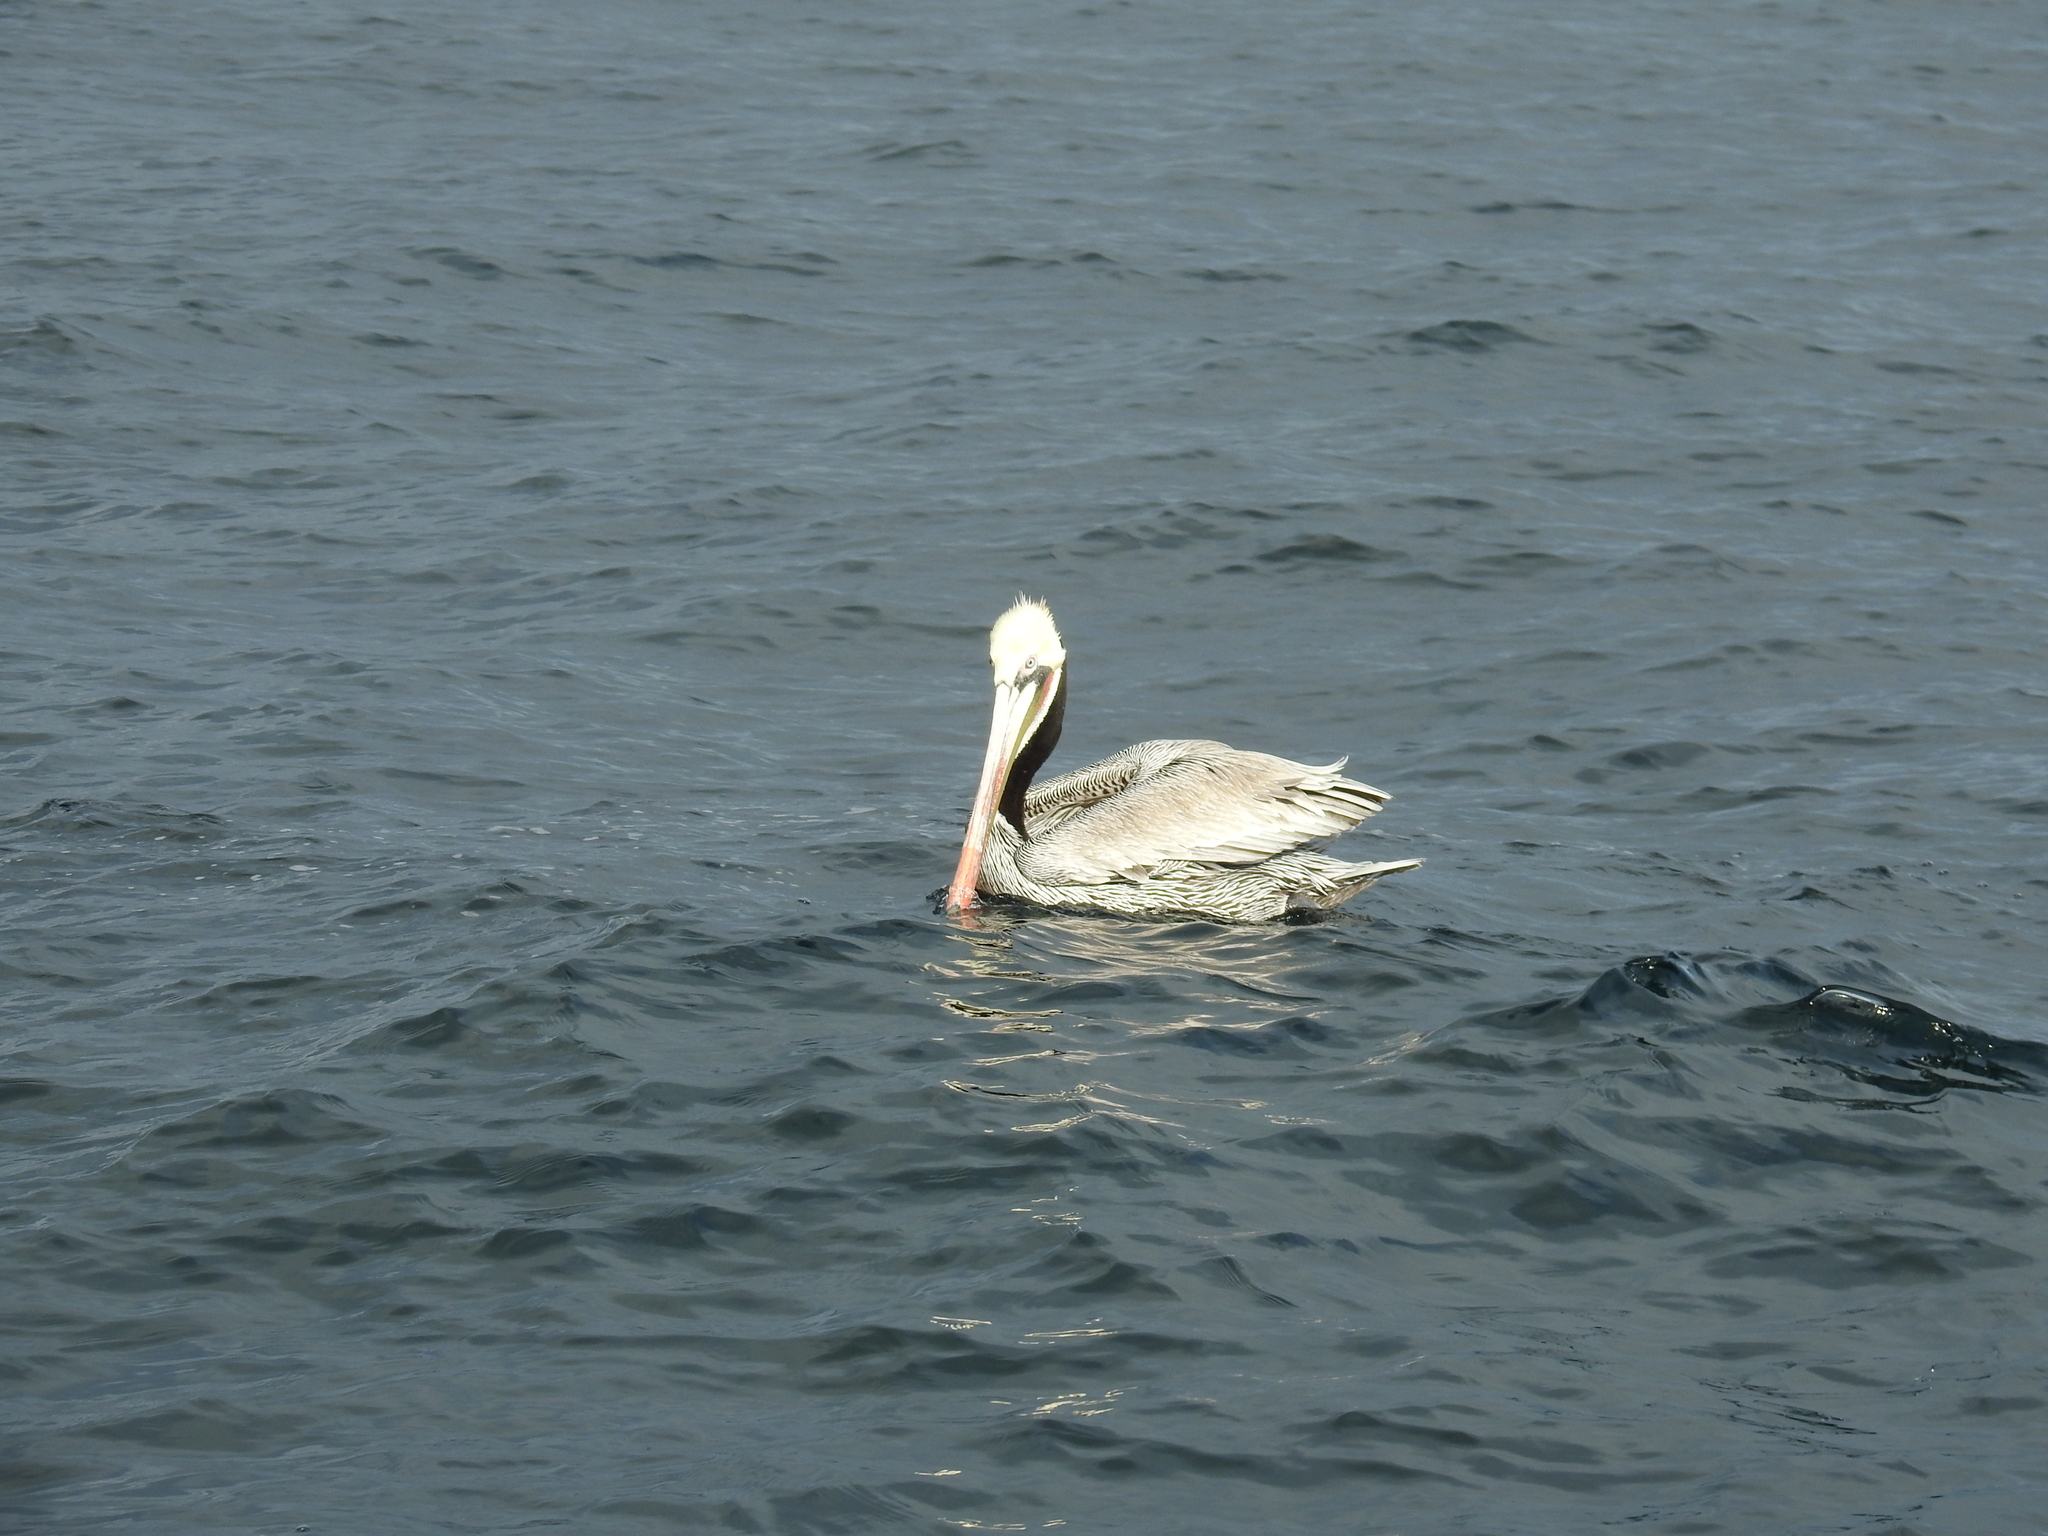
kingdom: Animalia
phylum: Chordata
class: Aves
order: Pelecaniformes
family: Pelecanidae
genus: Pelecanus
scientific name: Pelecanus occidentalis
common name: Brown pelican
